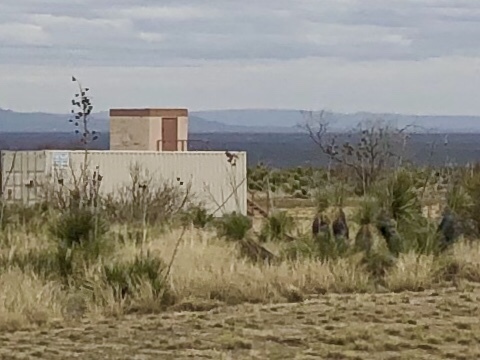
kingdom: Plantae
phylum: Tracheophyta
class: Liliopsida
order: Asparagales
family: Asparagaceae
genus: Yucca
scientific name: Yucca elata
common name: Palmella
